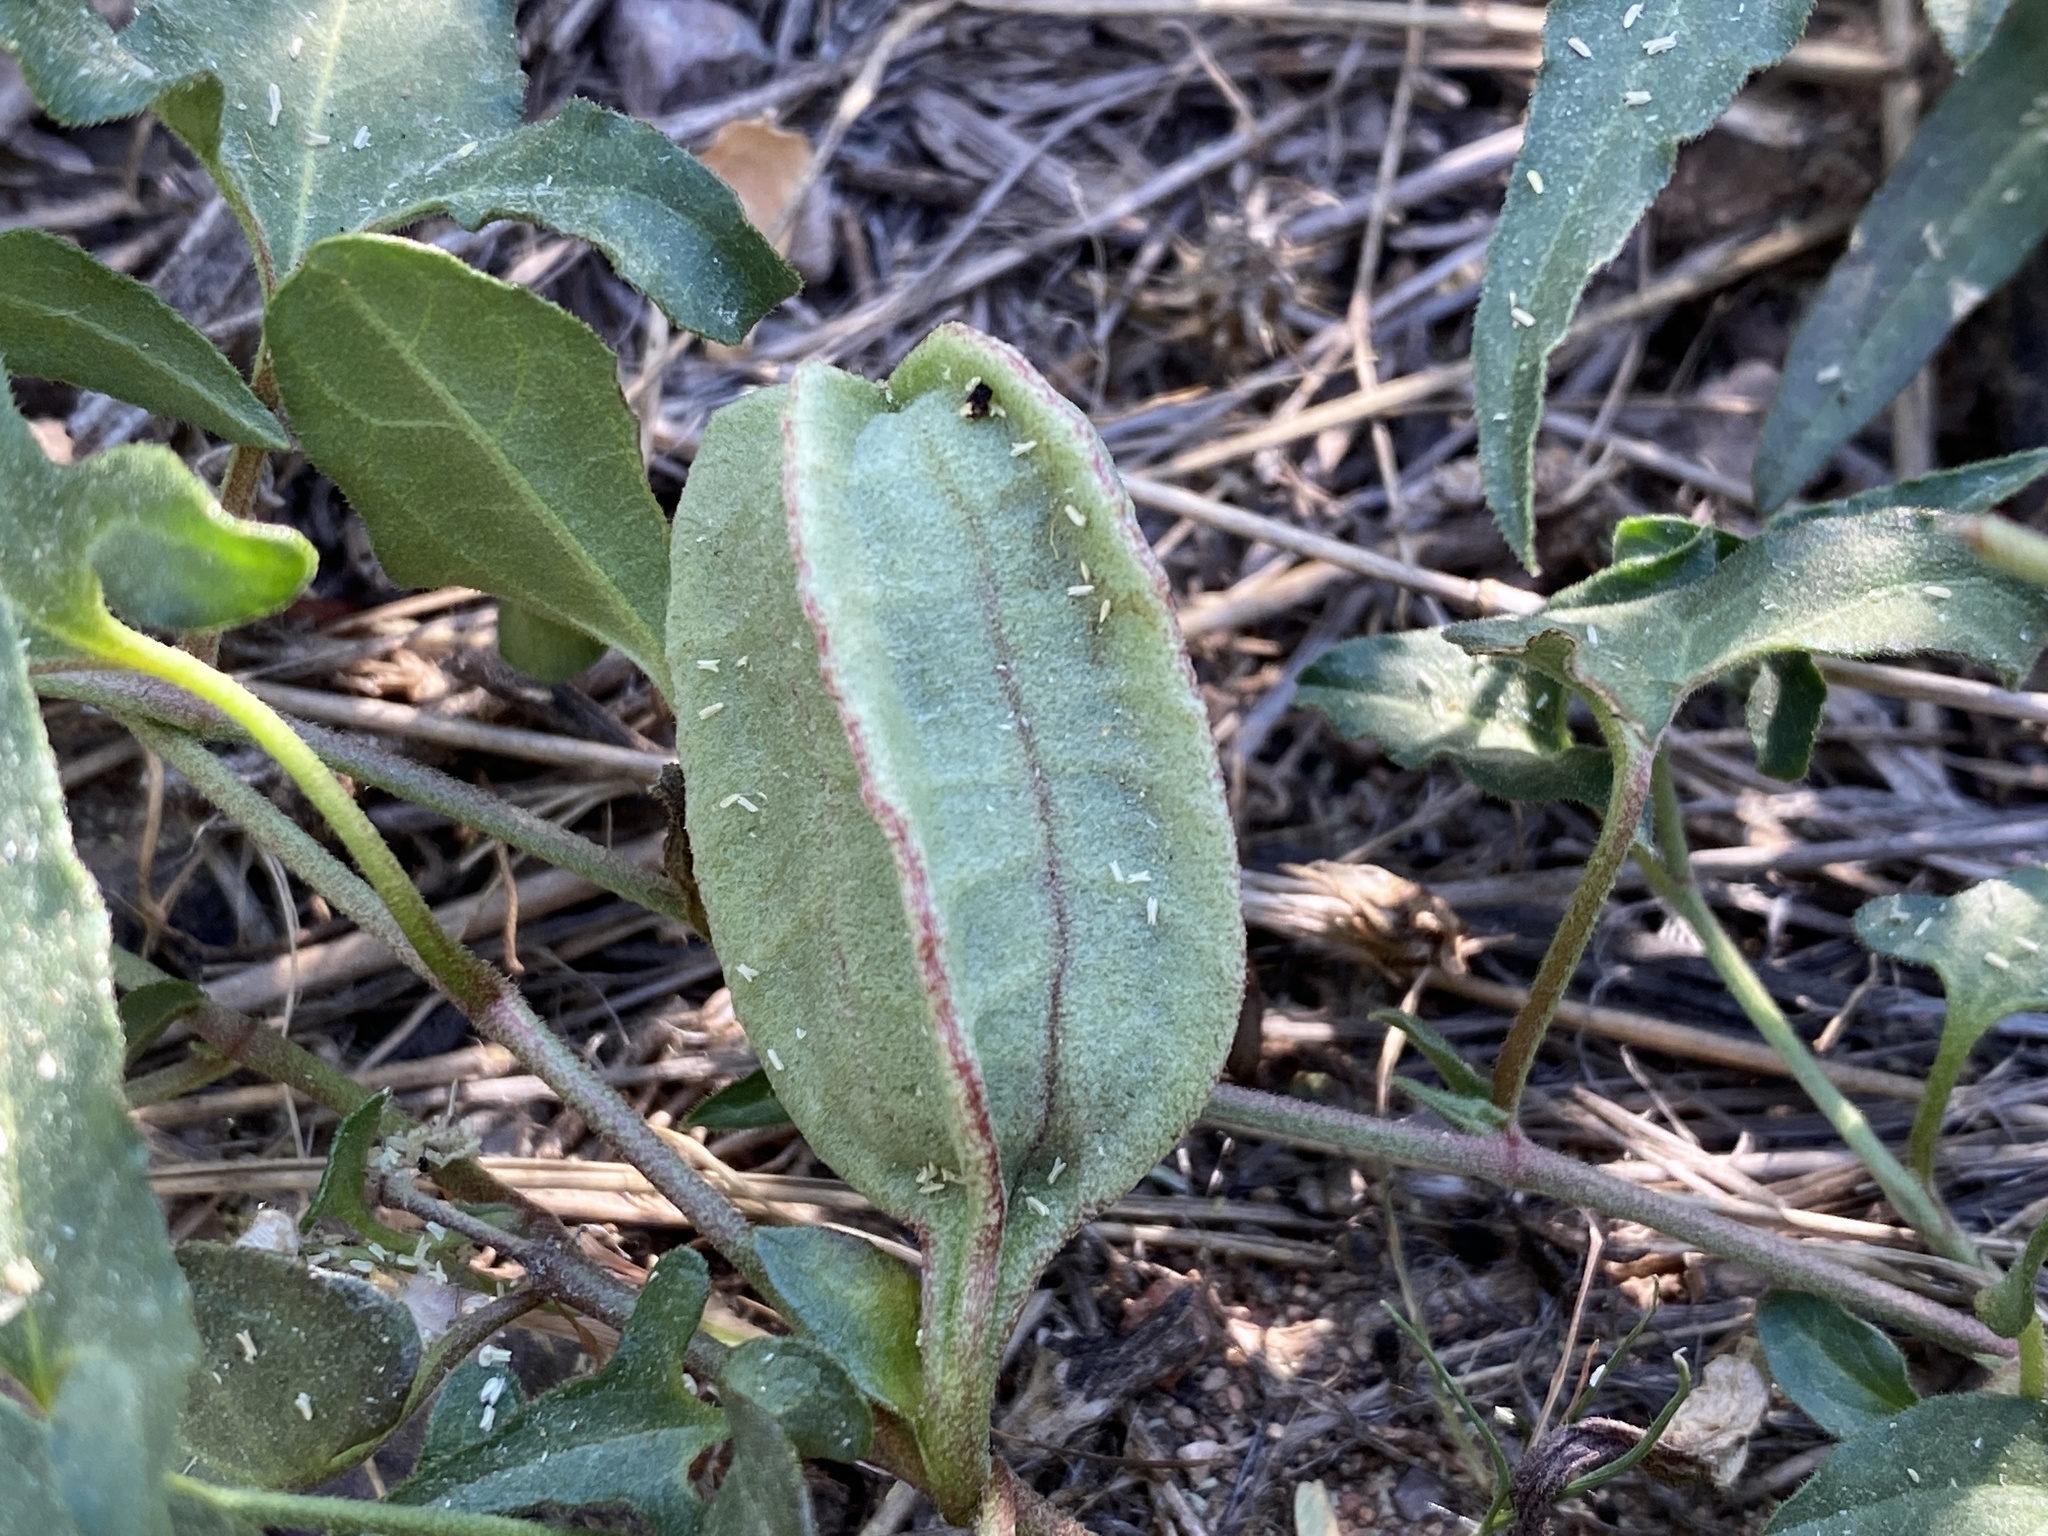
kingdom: Plantae
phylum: Tracheophyta
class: Magnoliopsida
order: Piperales
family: Aristolochiaceae
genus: Aristolochia
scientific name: Aristolochia watsonii
